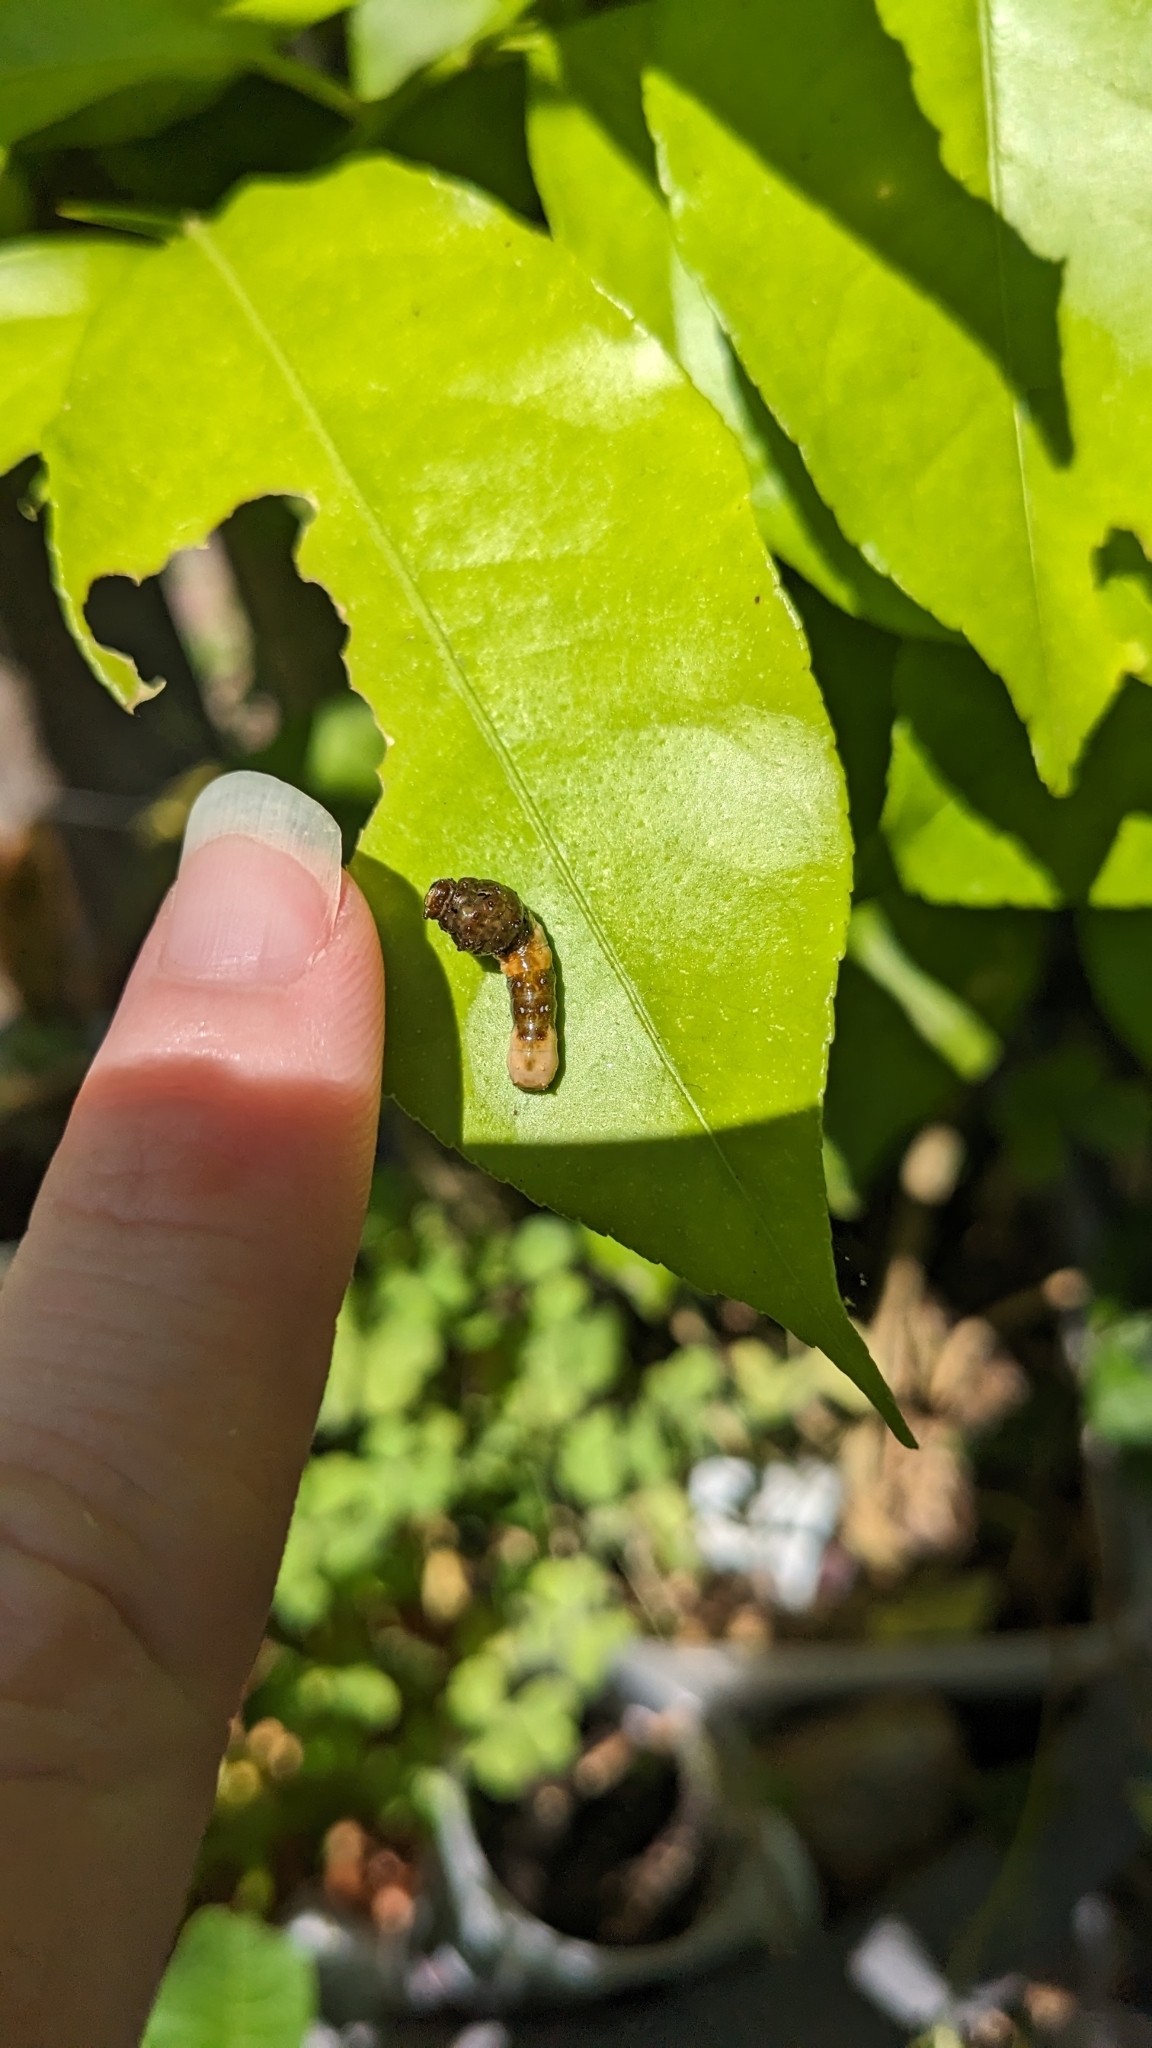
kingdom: Animalia
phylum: Arthropoda
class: Insecta
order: Lepidoptera
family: Papilionidae
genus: Papilio
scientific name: Papilio cresphontes
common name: Giant swallowtail
